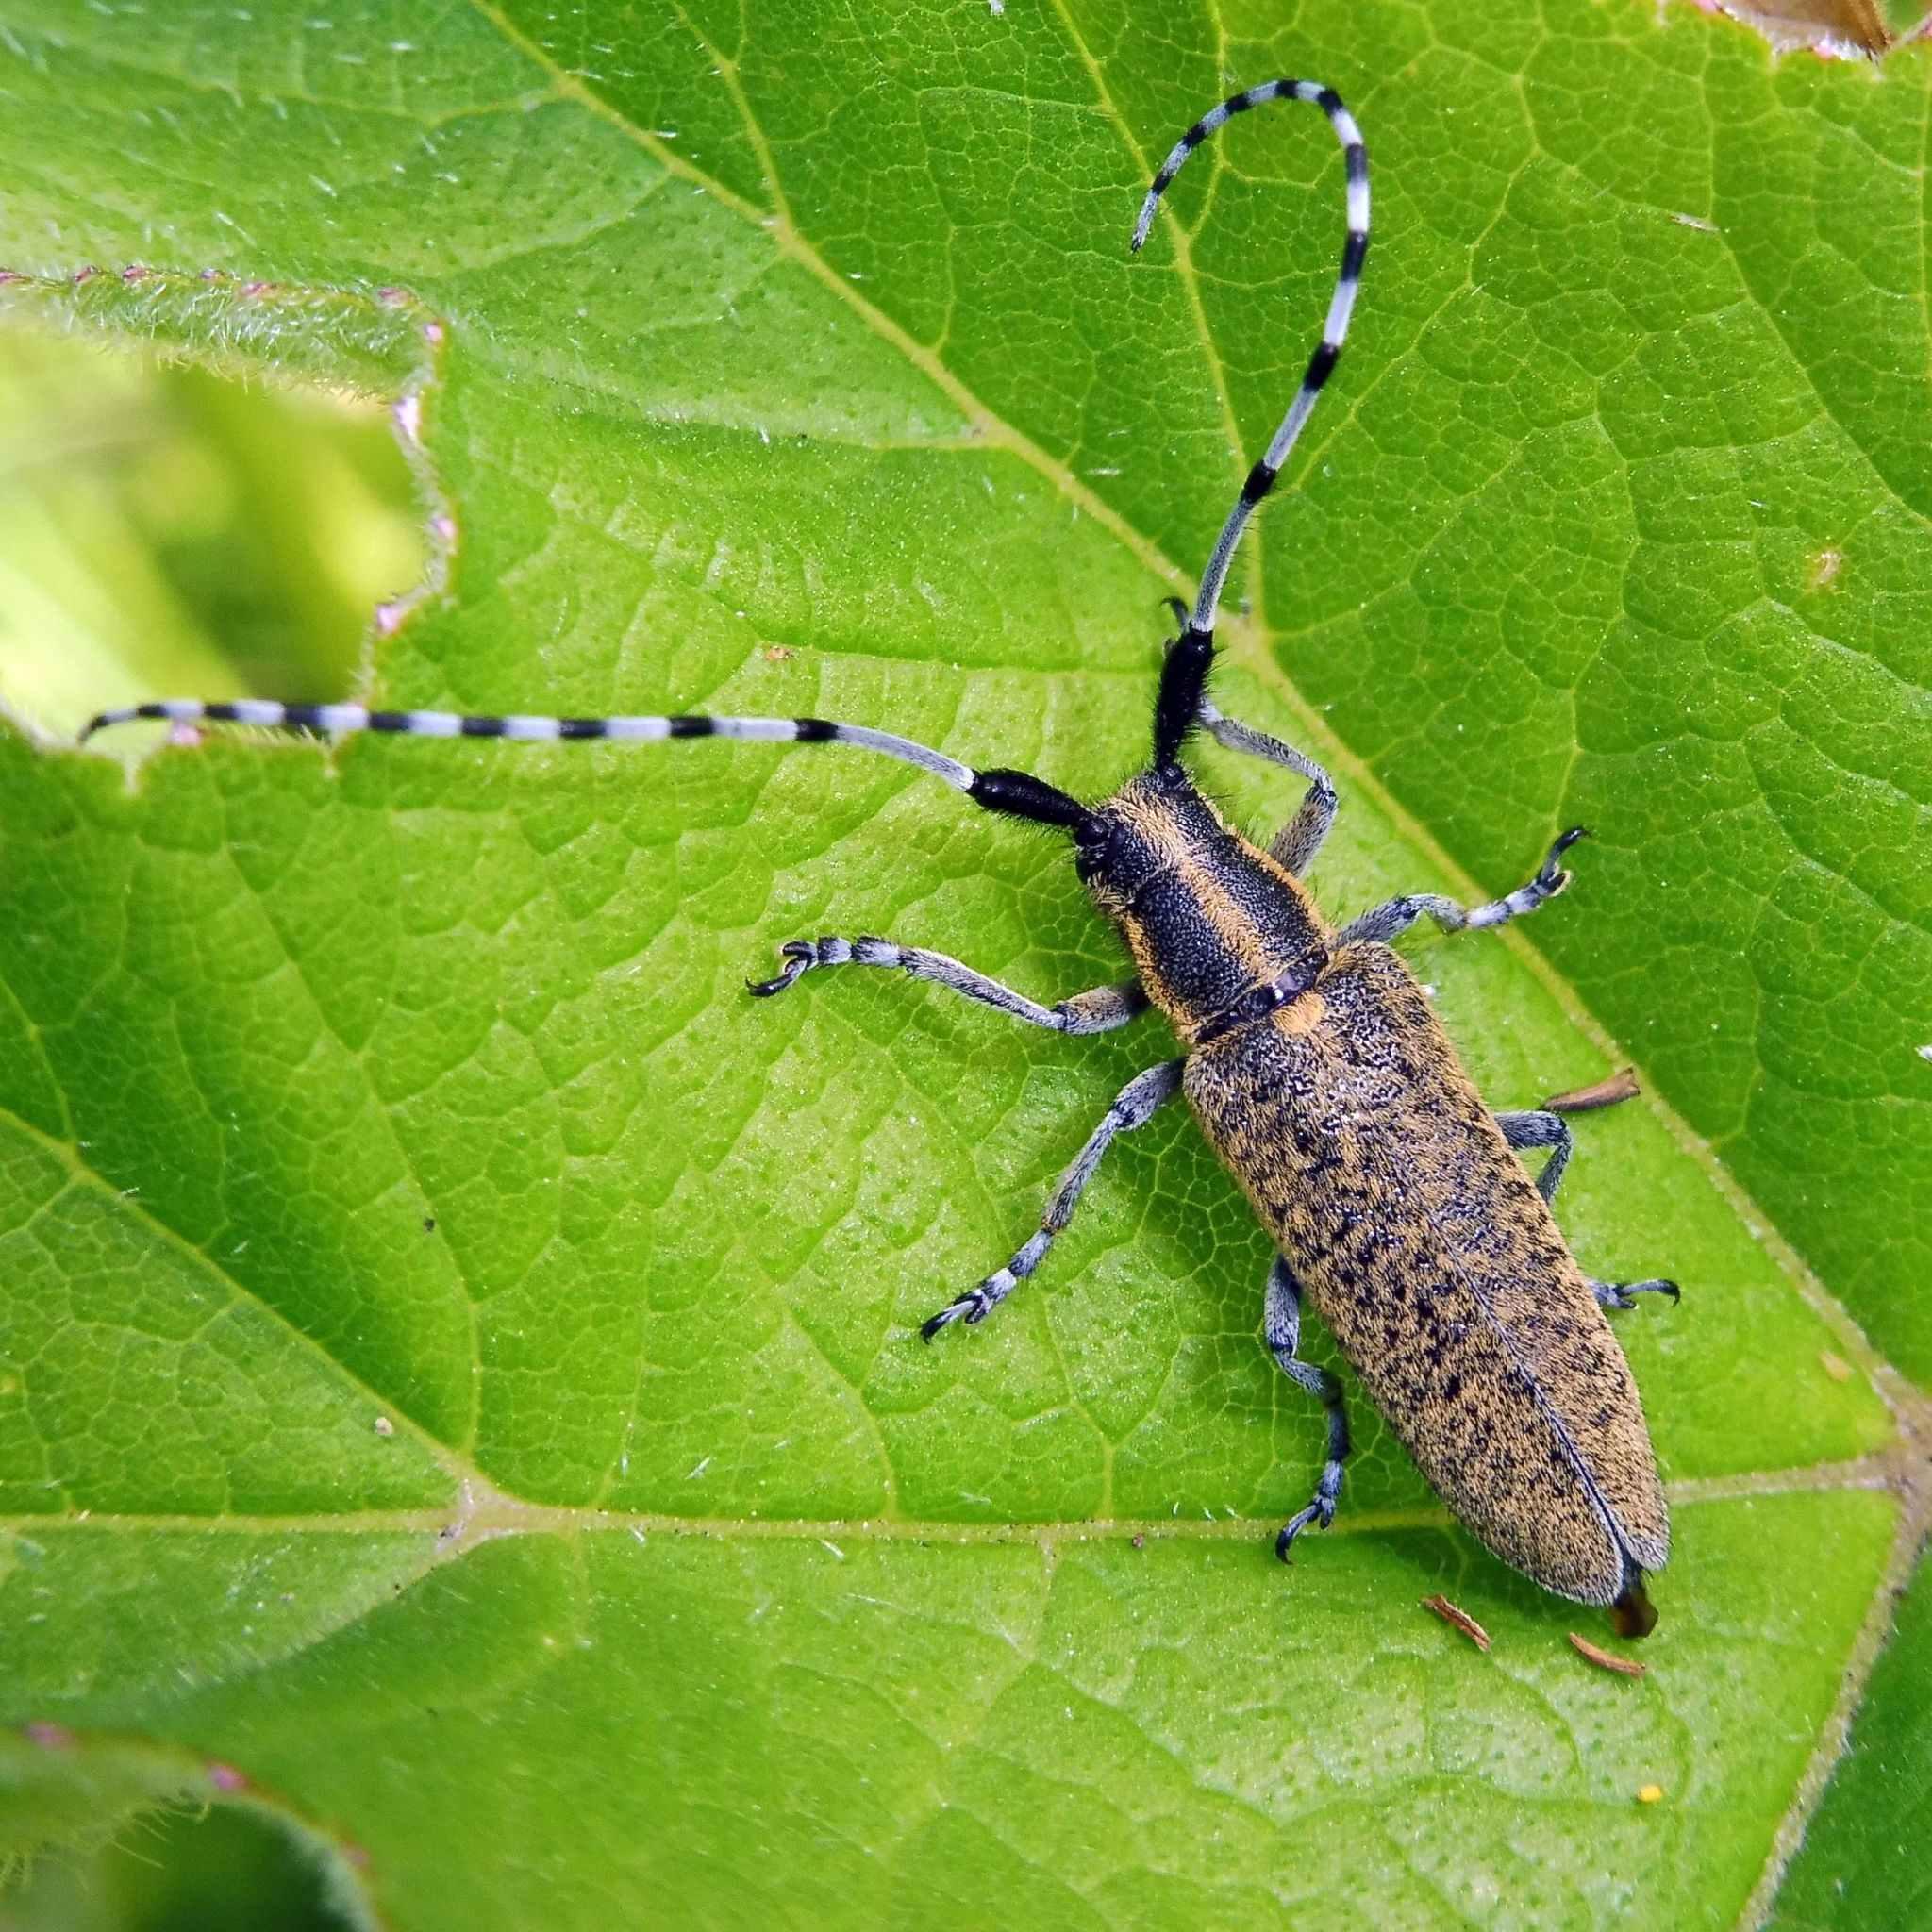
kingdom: Animalia
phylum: Arthropoda
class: Insecta
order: Coleoptera
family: Cerambycidae
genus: Agapanthia
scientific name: Agapanthia villosoviridescens
